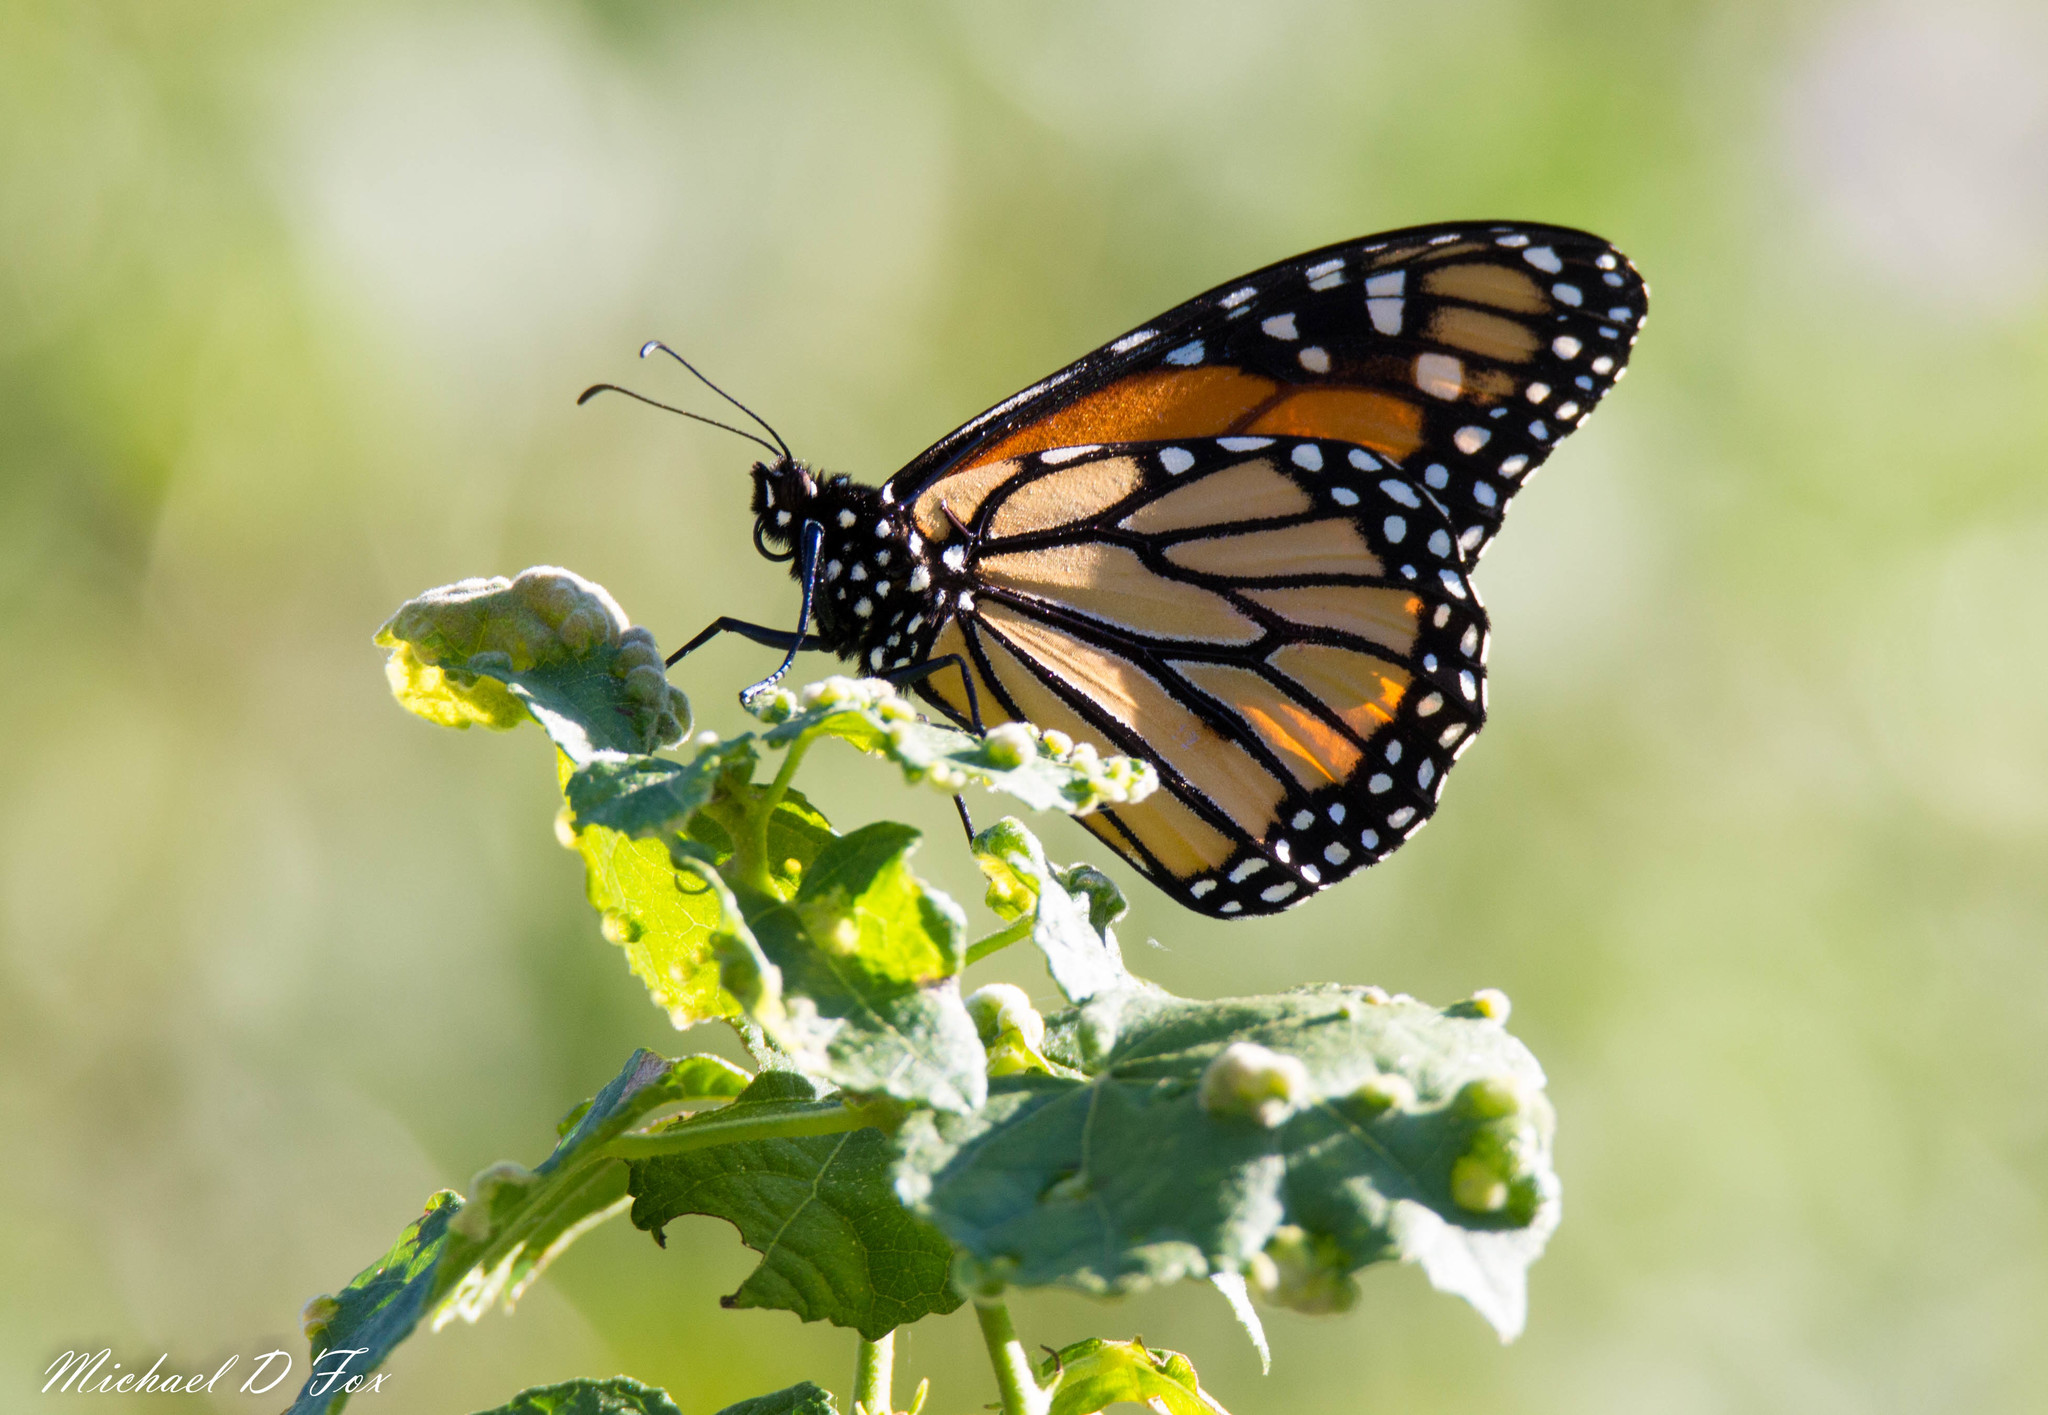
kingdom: Animalia
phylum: Arthropoda
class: Insecta
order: Lepidoptera
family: Nymphalidae
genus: Danaus
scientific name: Danaus plexippus
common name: Monarch
